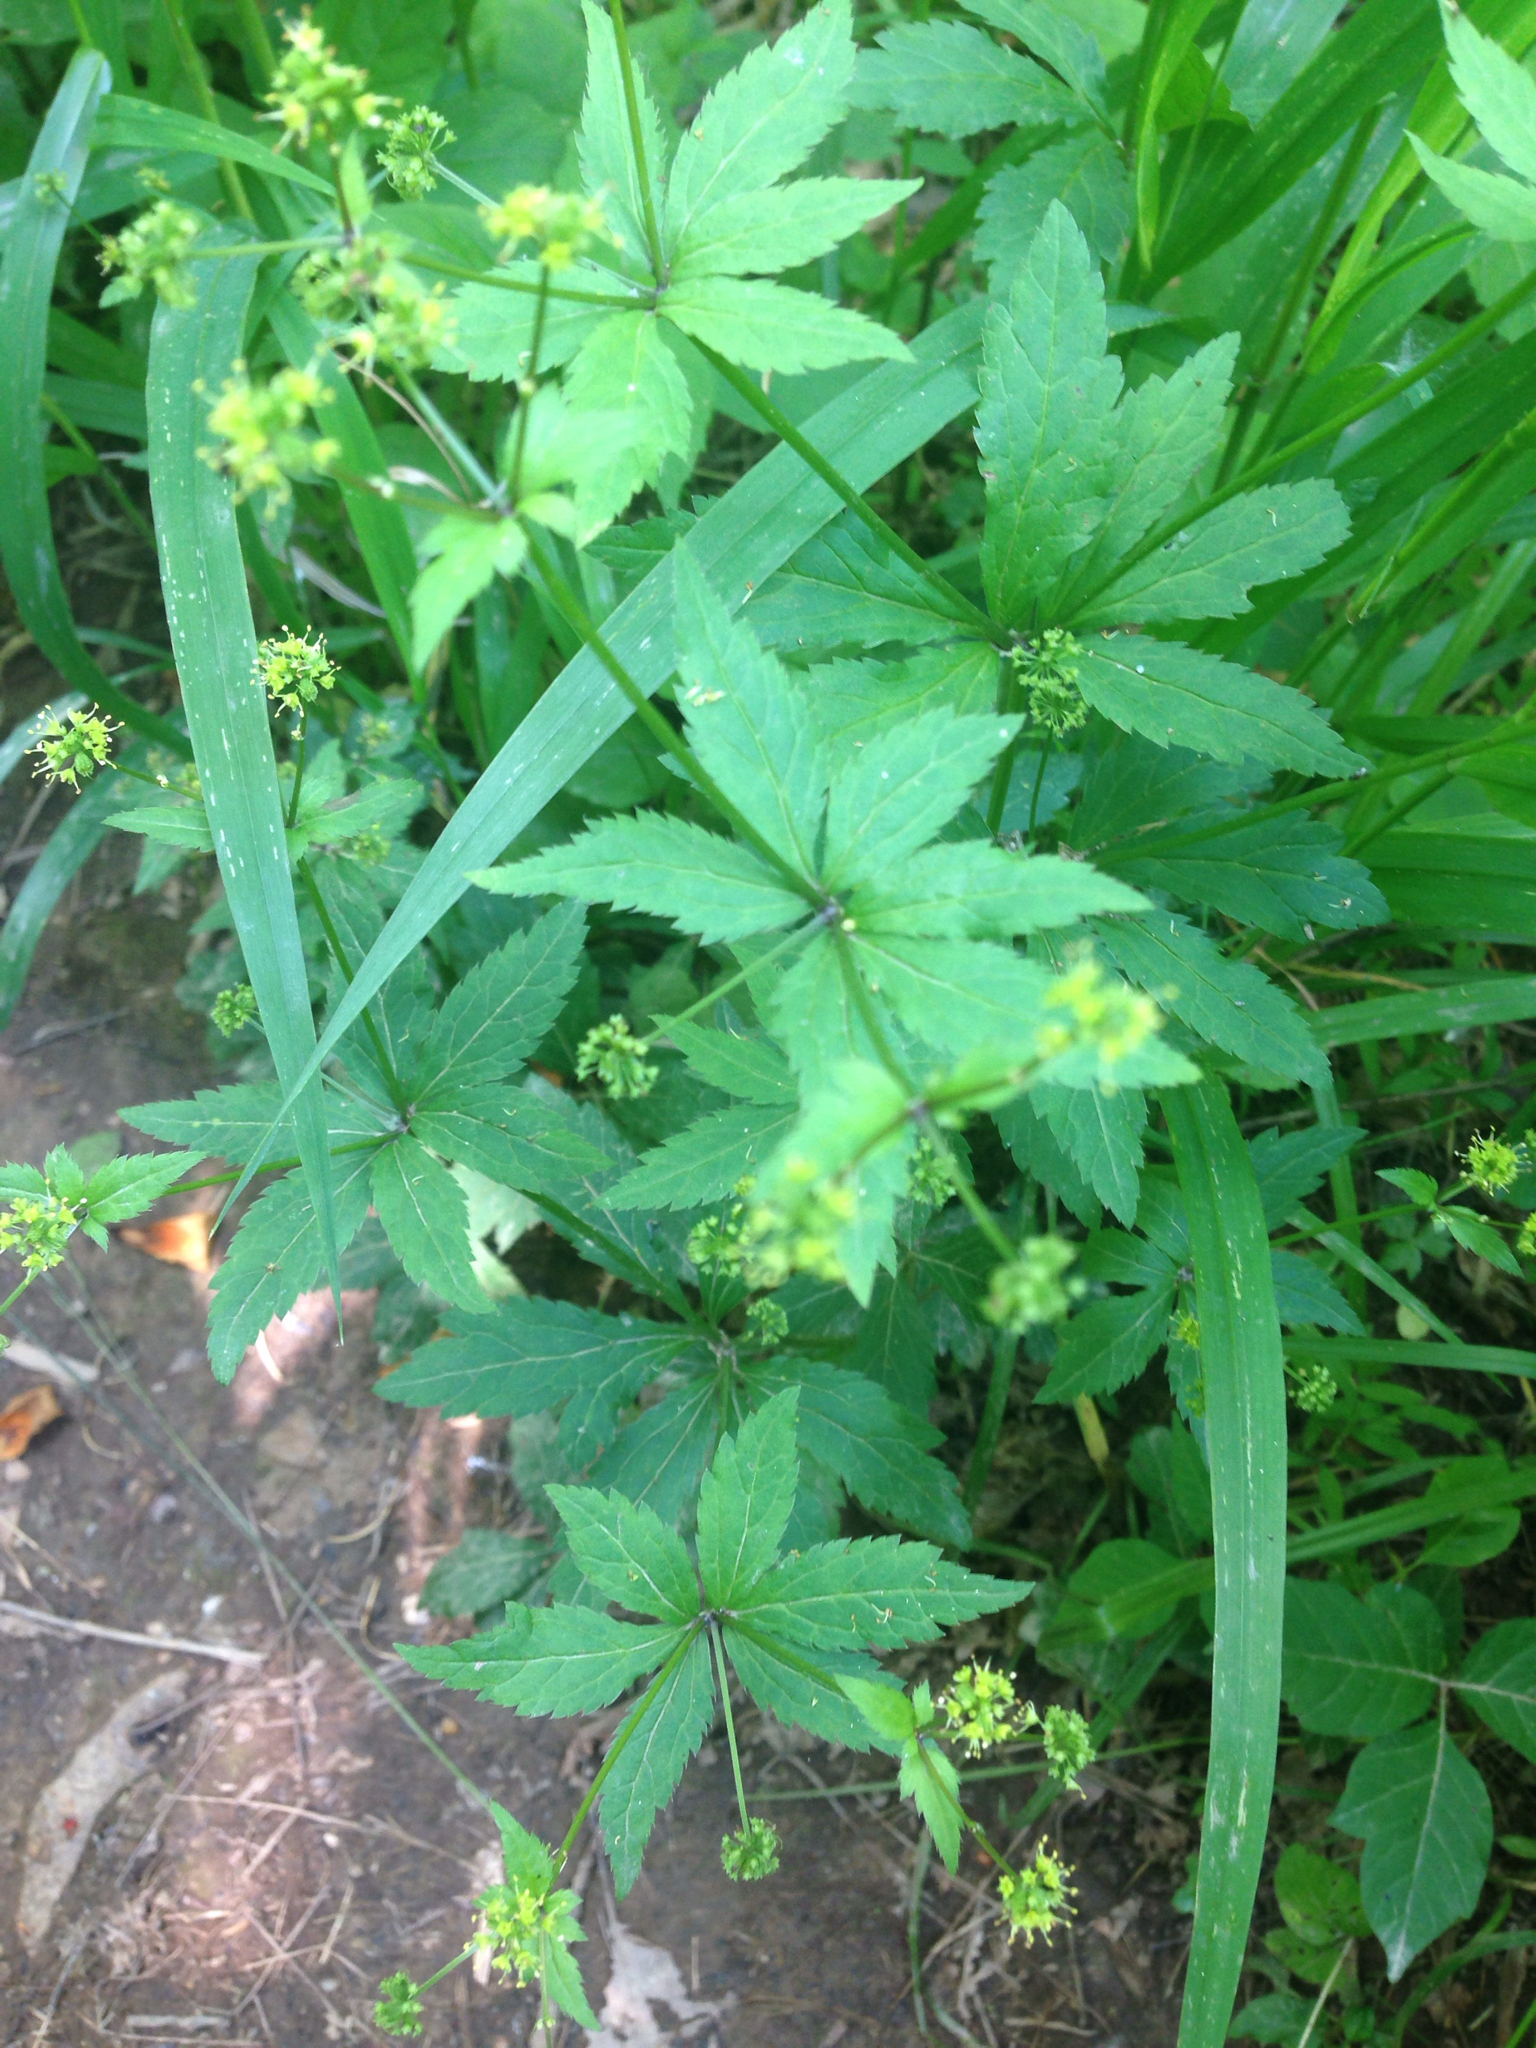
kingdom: Plantae
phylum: Tracheophyta
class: Magnoliopsida
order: Apiales
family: Apiaceae
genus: Sanicula
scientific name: Sanicula odorata
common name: Cluster sanicle
